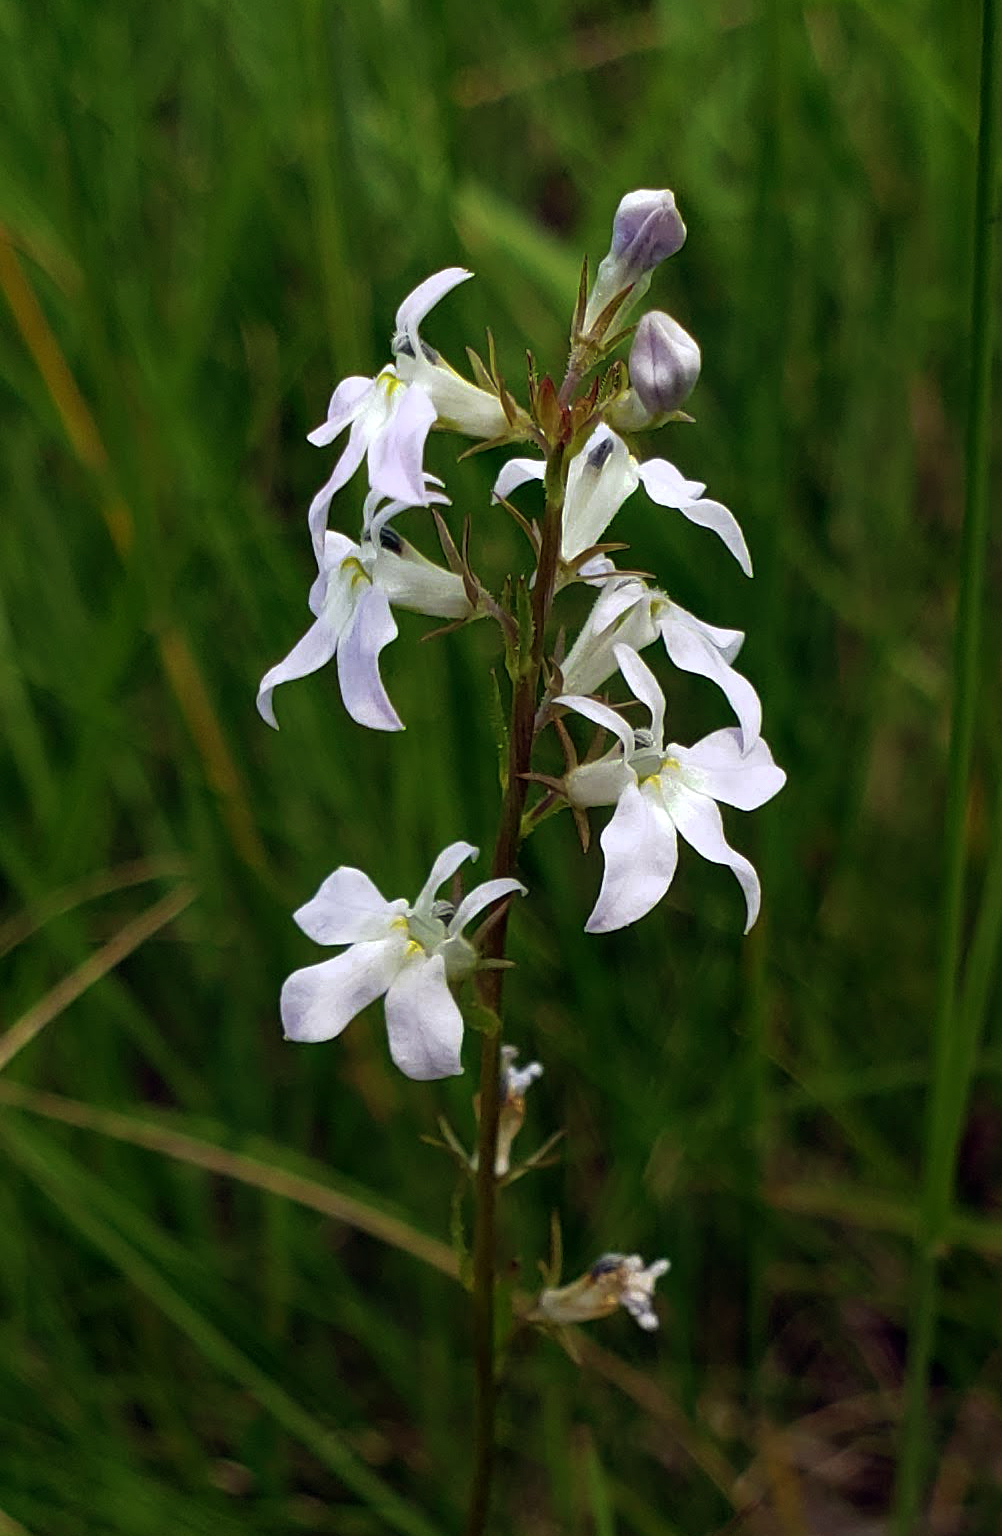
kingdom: Plantae
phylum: Tracheophyta
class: Magnoliopsida
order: Asterales
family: Campanulaceae
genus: Lobelia
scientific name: Lobelia spicata
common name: Pale-spike lobelia
